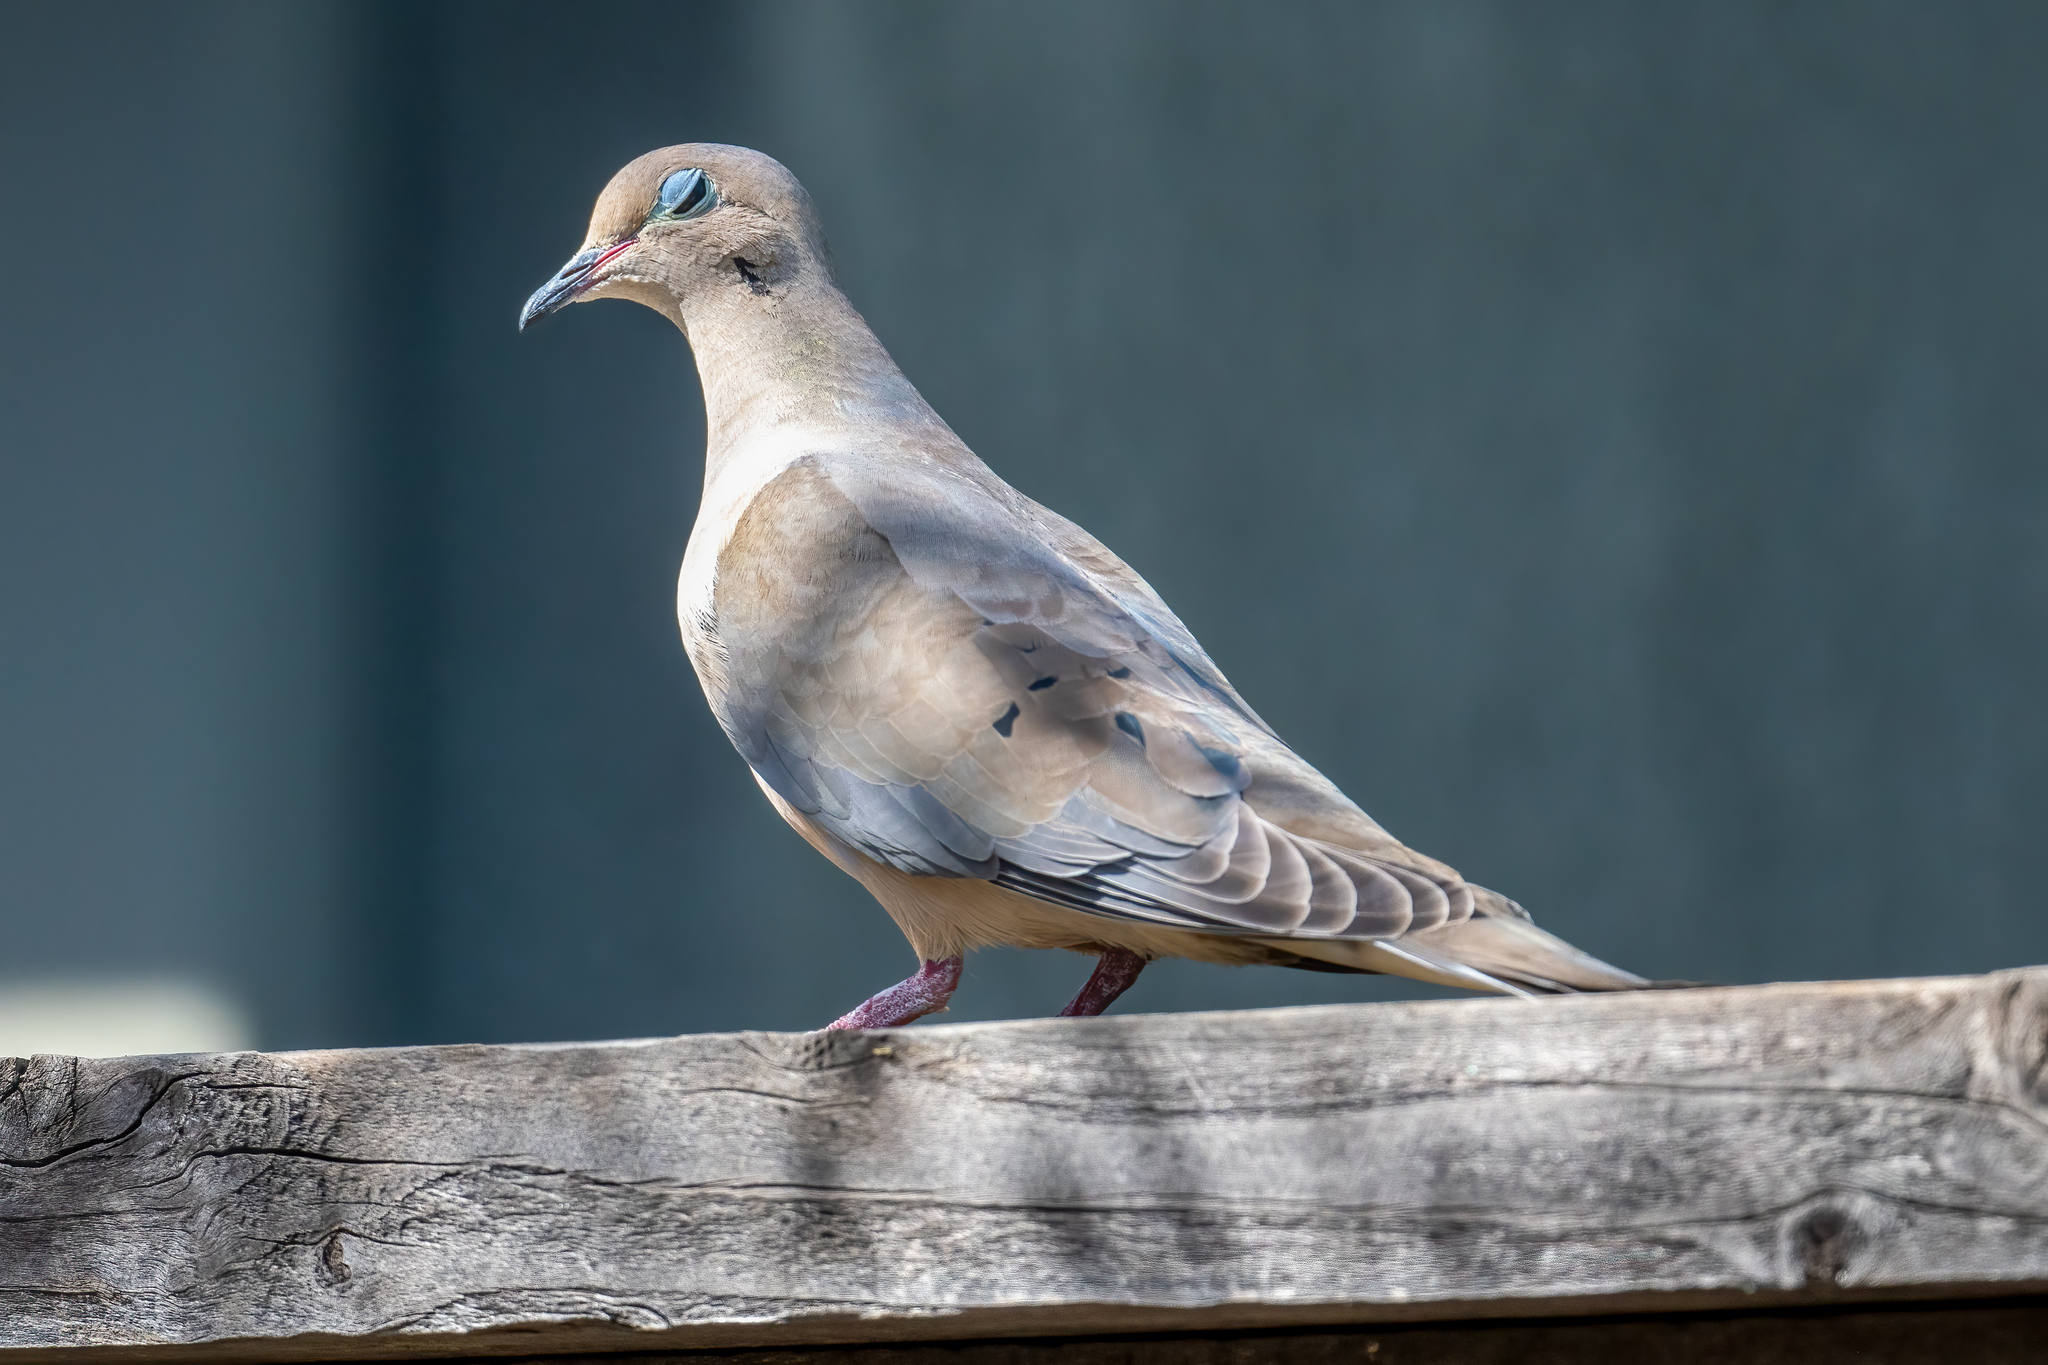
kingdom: Animalia
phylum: Chordata
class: Aves
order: Columbiformes
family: Columbidae
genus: Zenaida
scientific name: Zenaida macroura
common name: Mourning dove
